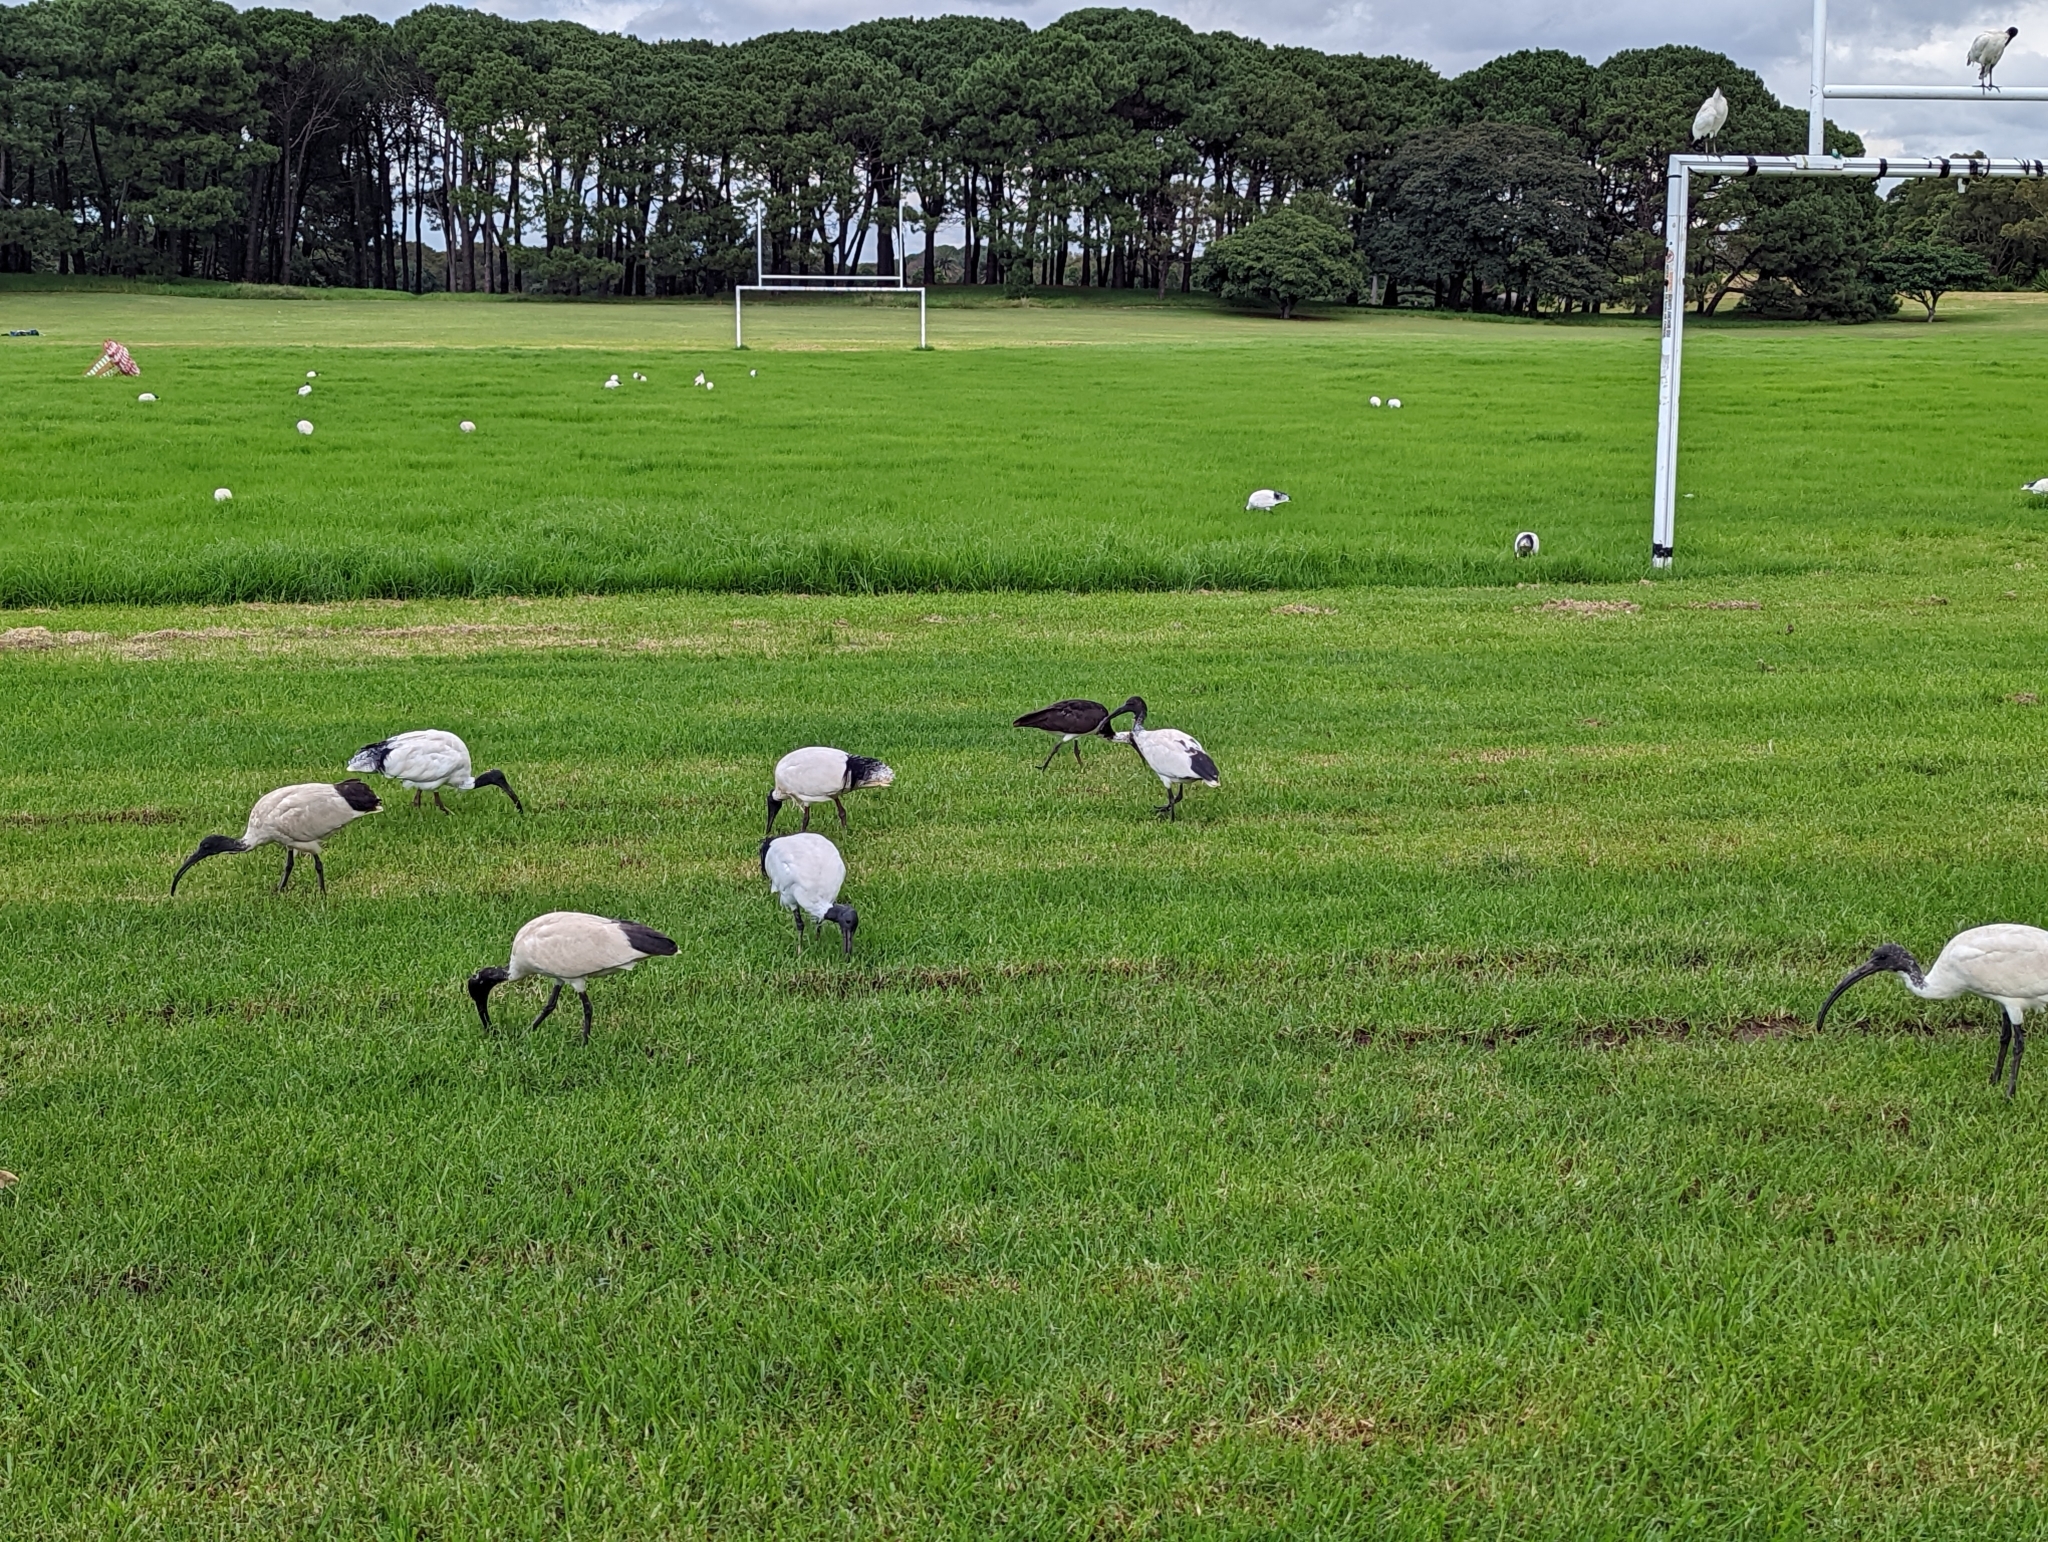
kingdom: Animalia
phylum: Chordata
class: Aves
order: Pelecaniformes
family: Threskiornithidae
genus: Threskiornis
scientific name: Threskiornis molucca
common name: Australian white ibis
